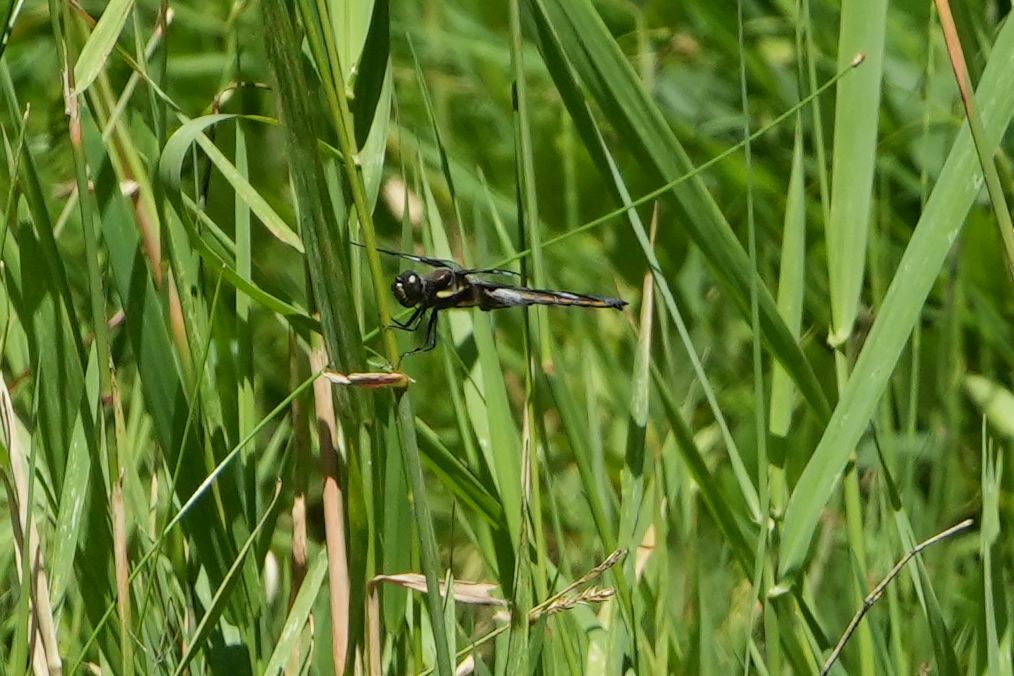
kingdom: Animalia
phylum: Arthropoda
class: Insecta
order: Odonata
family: Libellulidae
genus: Libellula
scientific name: Libellula pulchella
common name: Twelve-spotted skimmer
